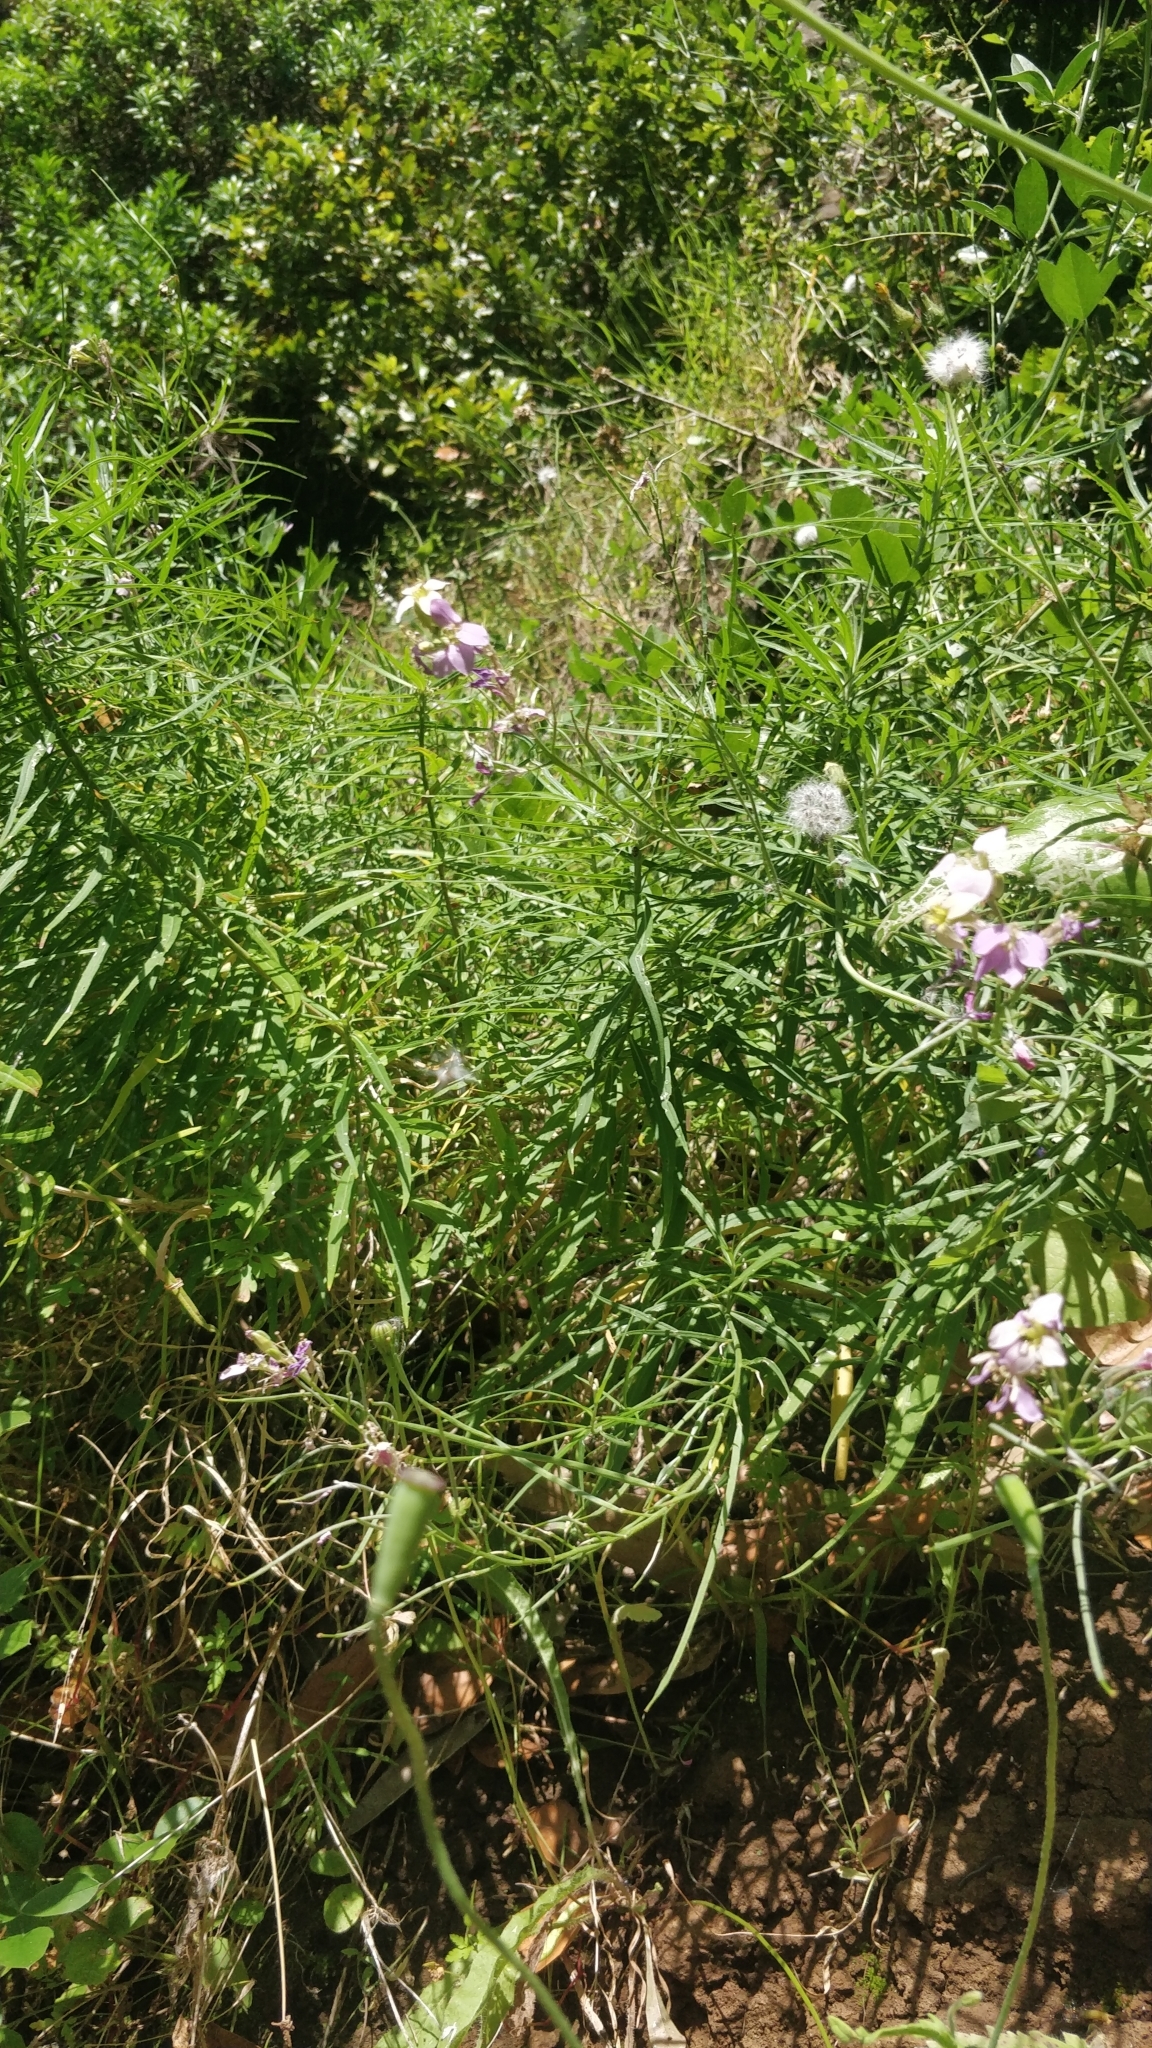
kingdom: Plantae
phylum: Tracheophyta
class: Magnoliopsida
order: Brassicales
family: Brassicaceae
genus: Erysimum
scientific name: Erysimum bicolor
